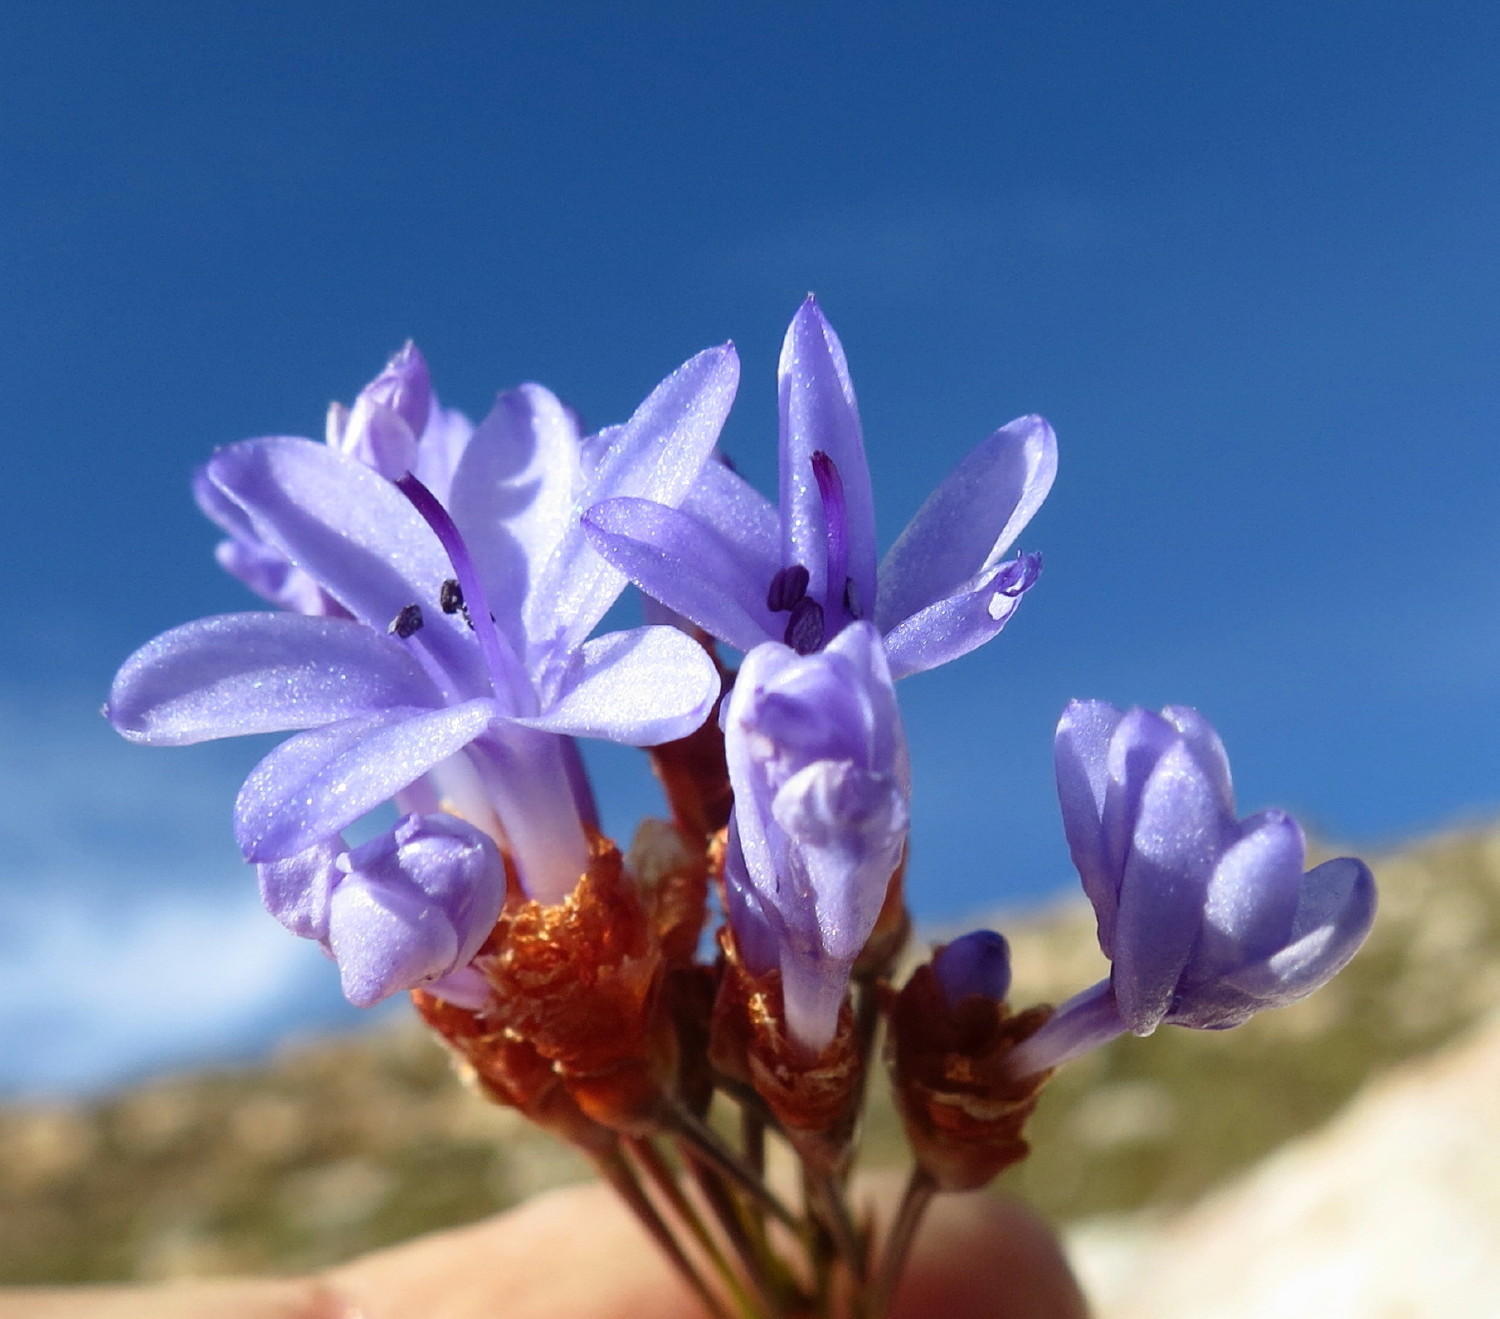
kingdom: Plantae
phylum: Tracheophyta
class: Liliopsida
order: Asparagales
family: Iridaceae
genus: Nivenia
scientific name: Nivenia binata
